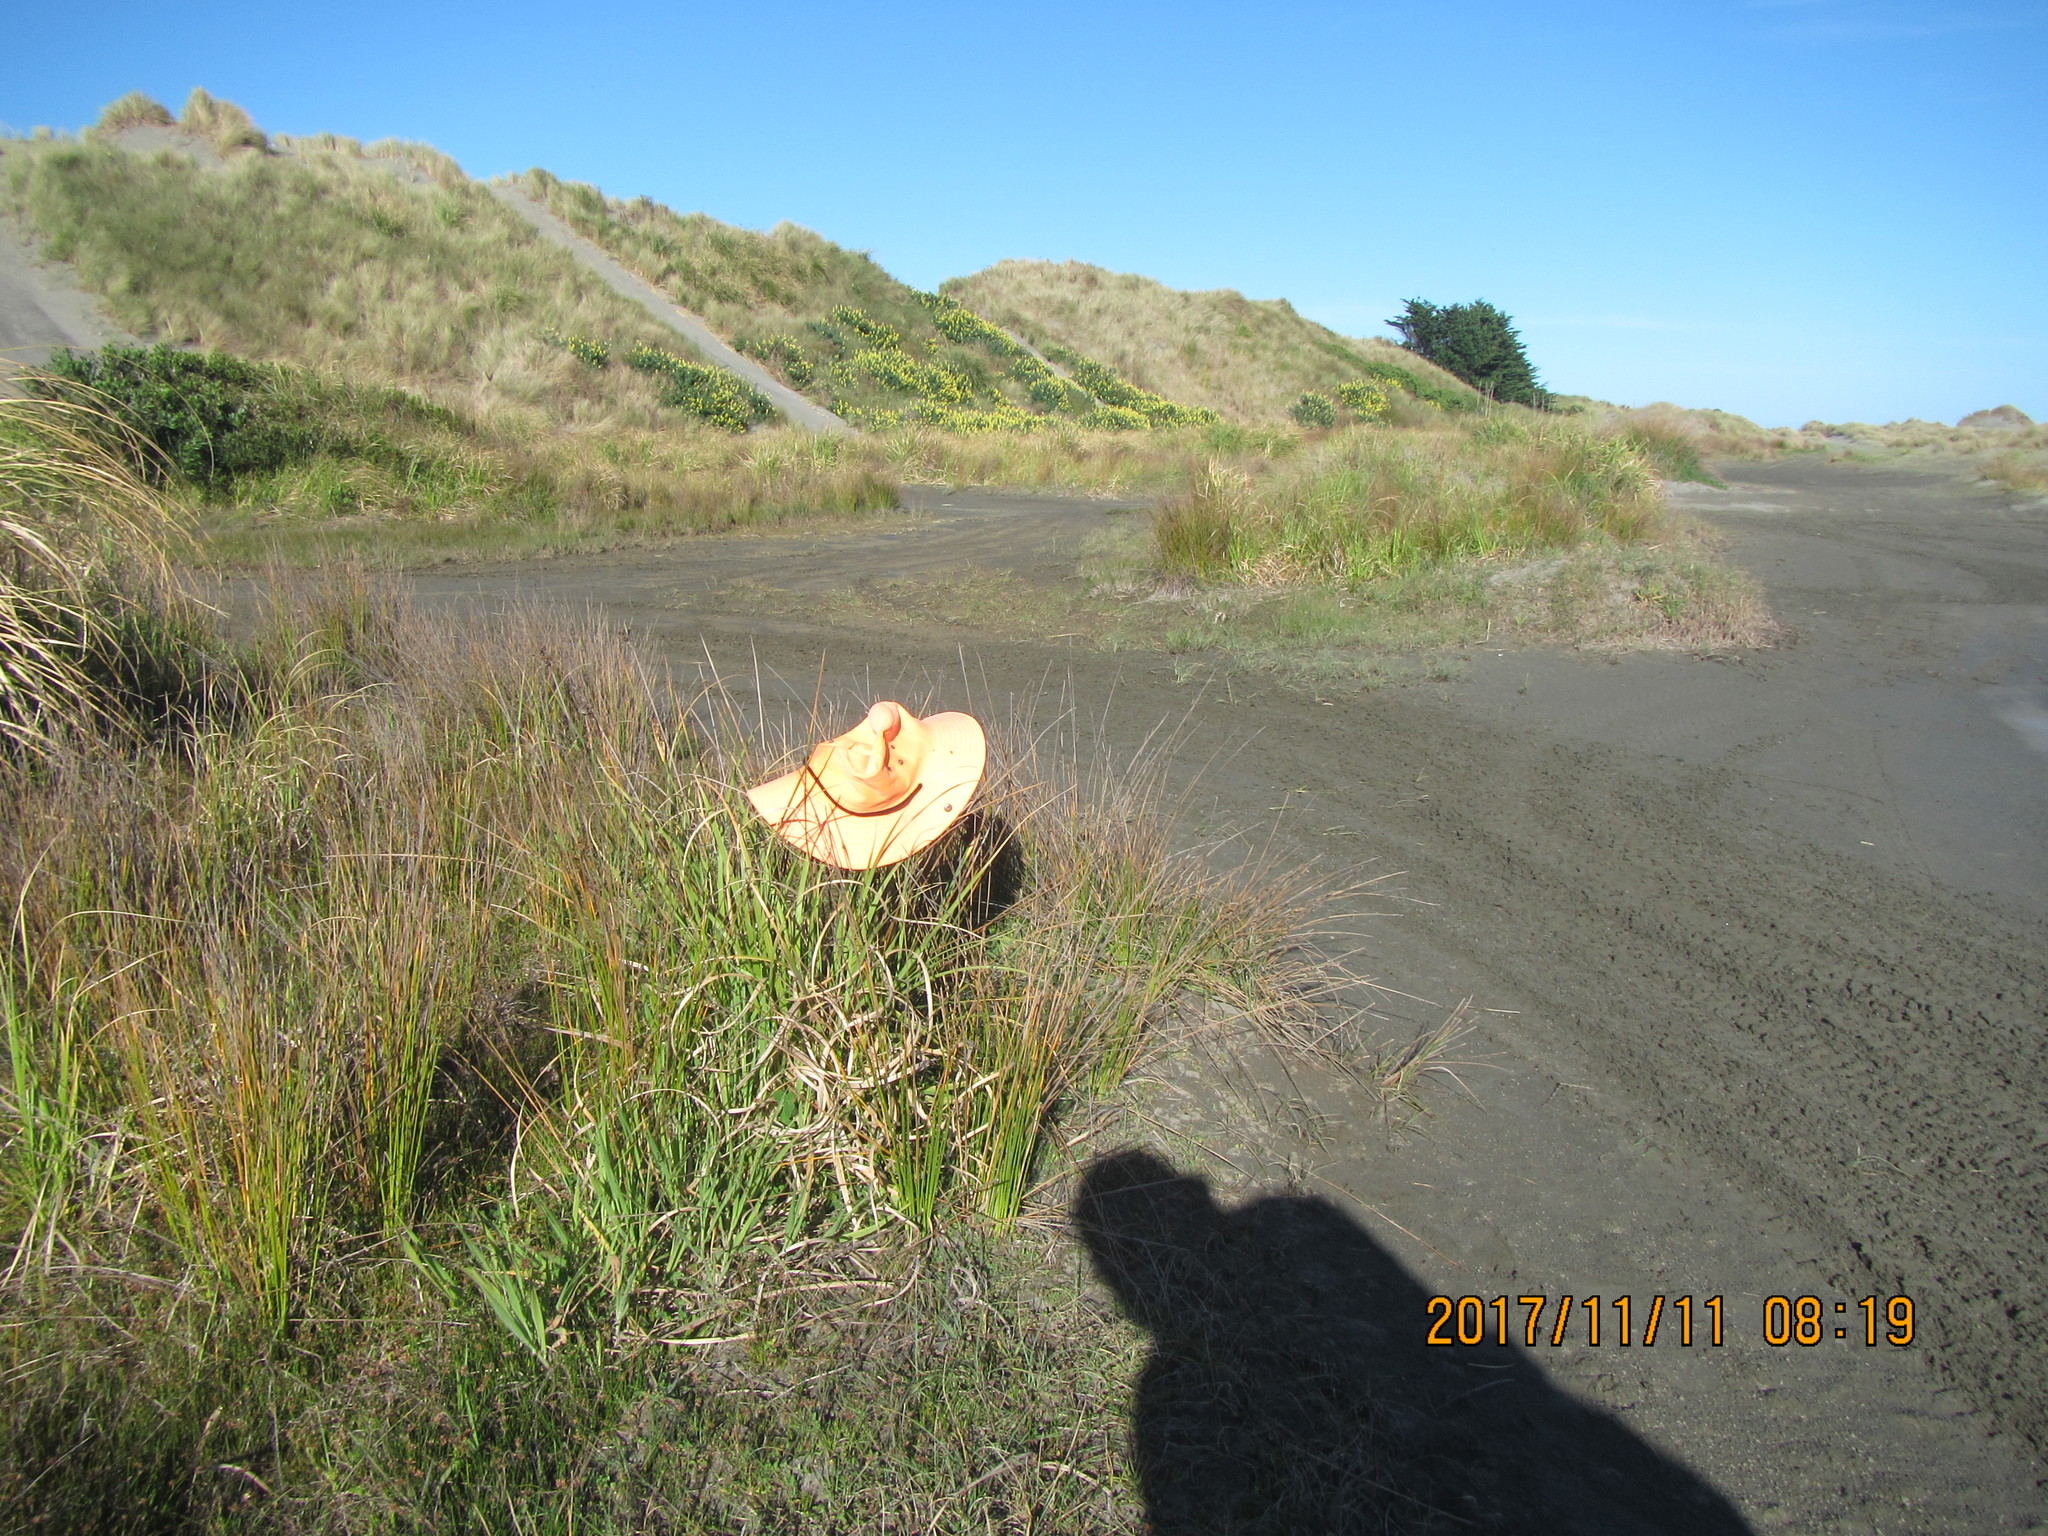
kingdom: Plantae
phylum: Tracheophyta
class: Liliopsida
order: Poales
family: Juncaceae
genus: Juncus
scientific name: Juncus acutus
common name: Sharp rush
